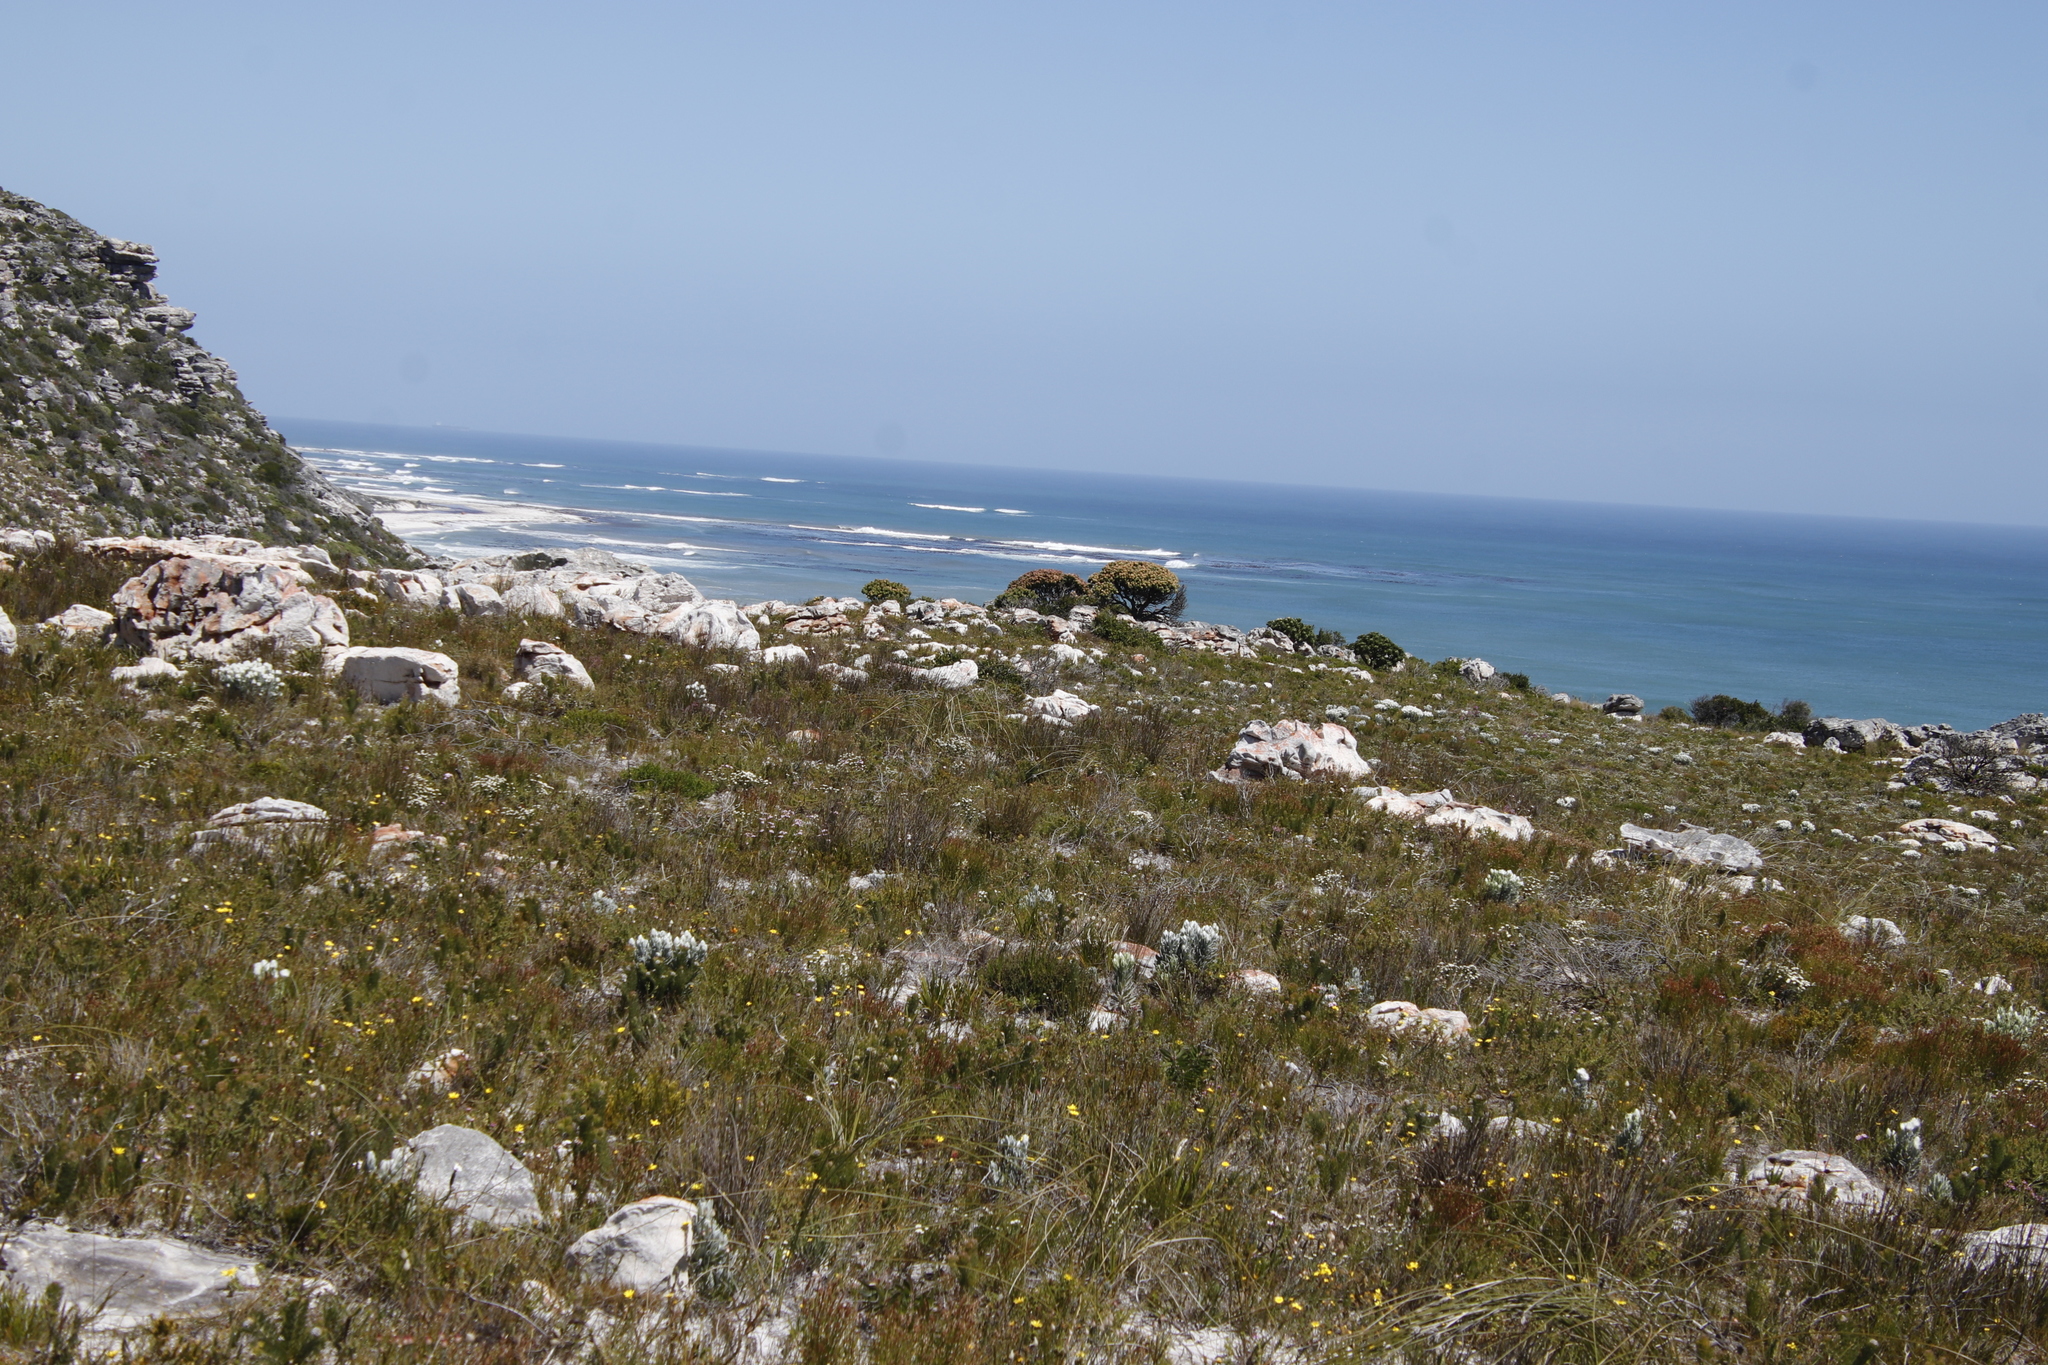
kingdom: Plantae
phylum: Tracheophyta
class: Magnoliopsida
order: Proteales
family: Proteaceae
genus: Mimetes
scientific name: Mimetes fimbriifolius
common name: Fringed bottlebrush
